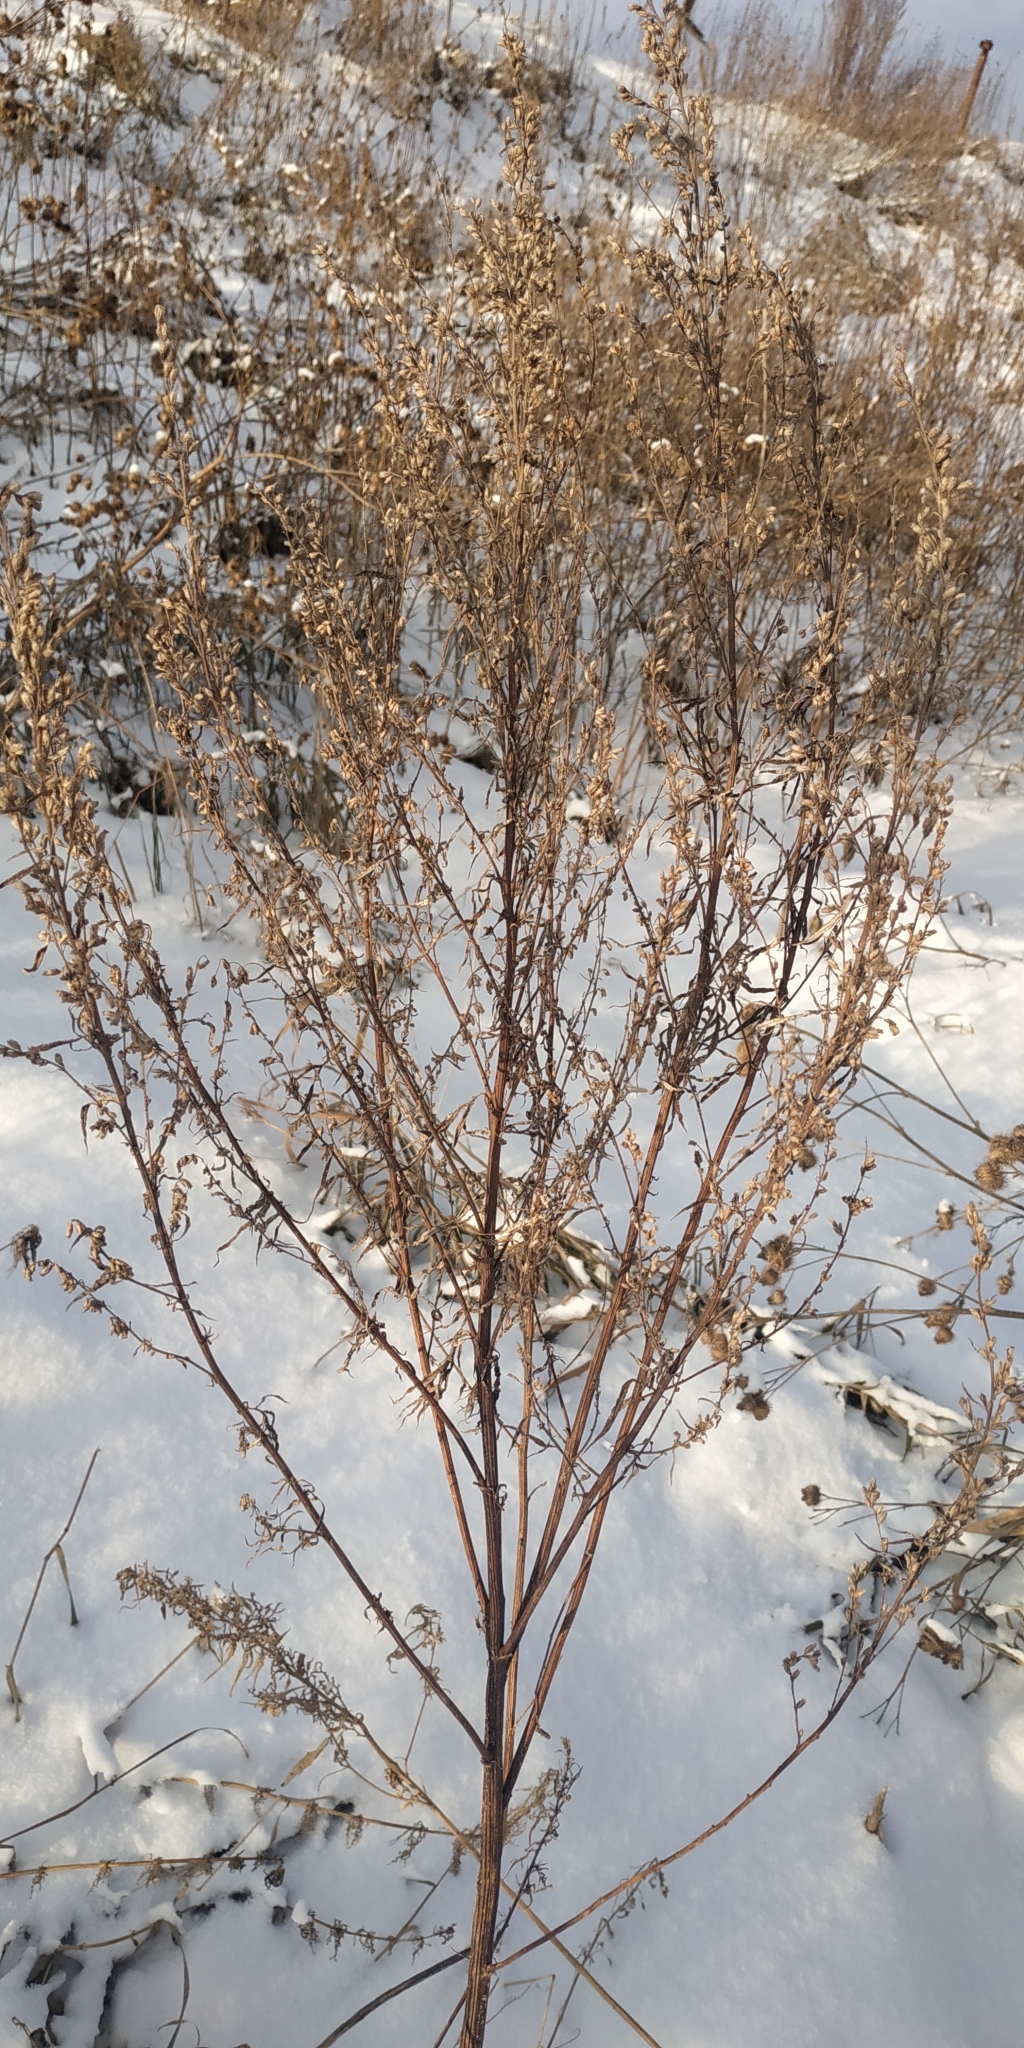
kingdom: Plantae
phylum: Tracheophyta
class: Magnoliopsida
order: Asterales
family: Asteraceae
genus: Artemisia
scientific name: Artemisia vulgaris
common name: Mugwort
